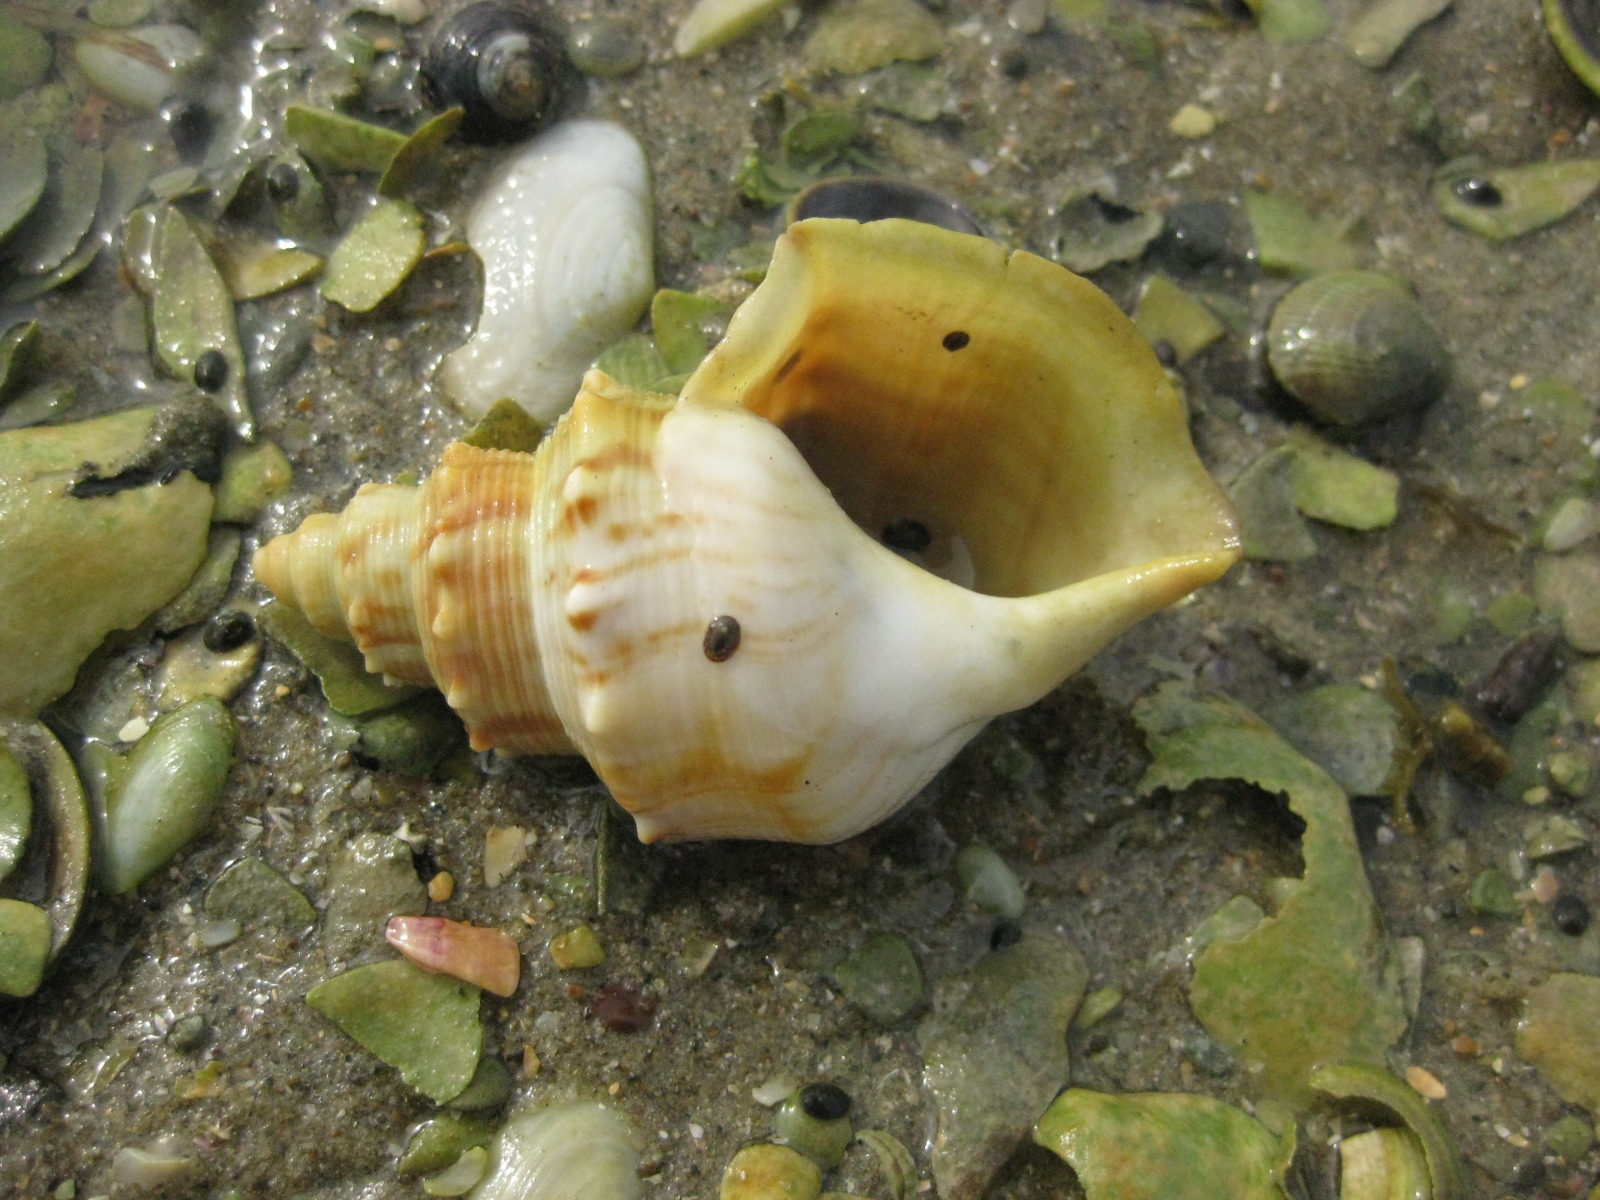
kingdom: Animalia
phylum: Mollusca
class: Gastropoda
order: Littorinimorpha
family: Struthiolariidae
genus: Struthiolaria
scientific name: Struthiolaria papulosa
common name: Large ostrich foot
